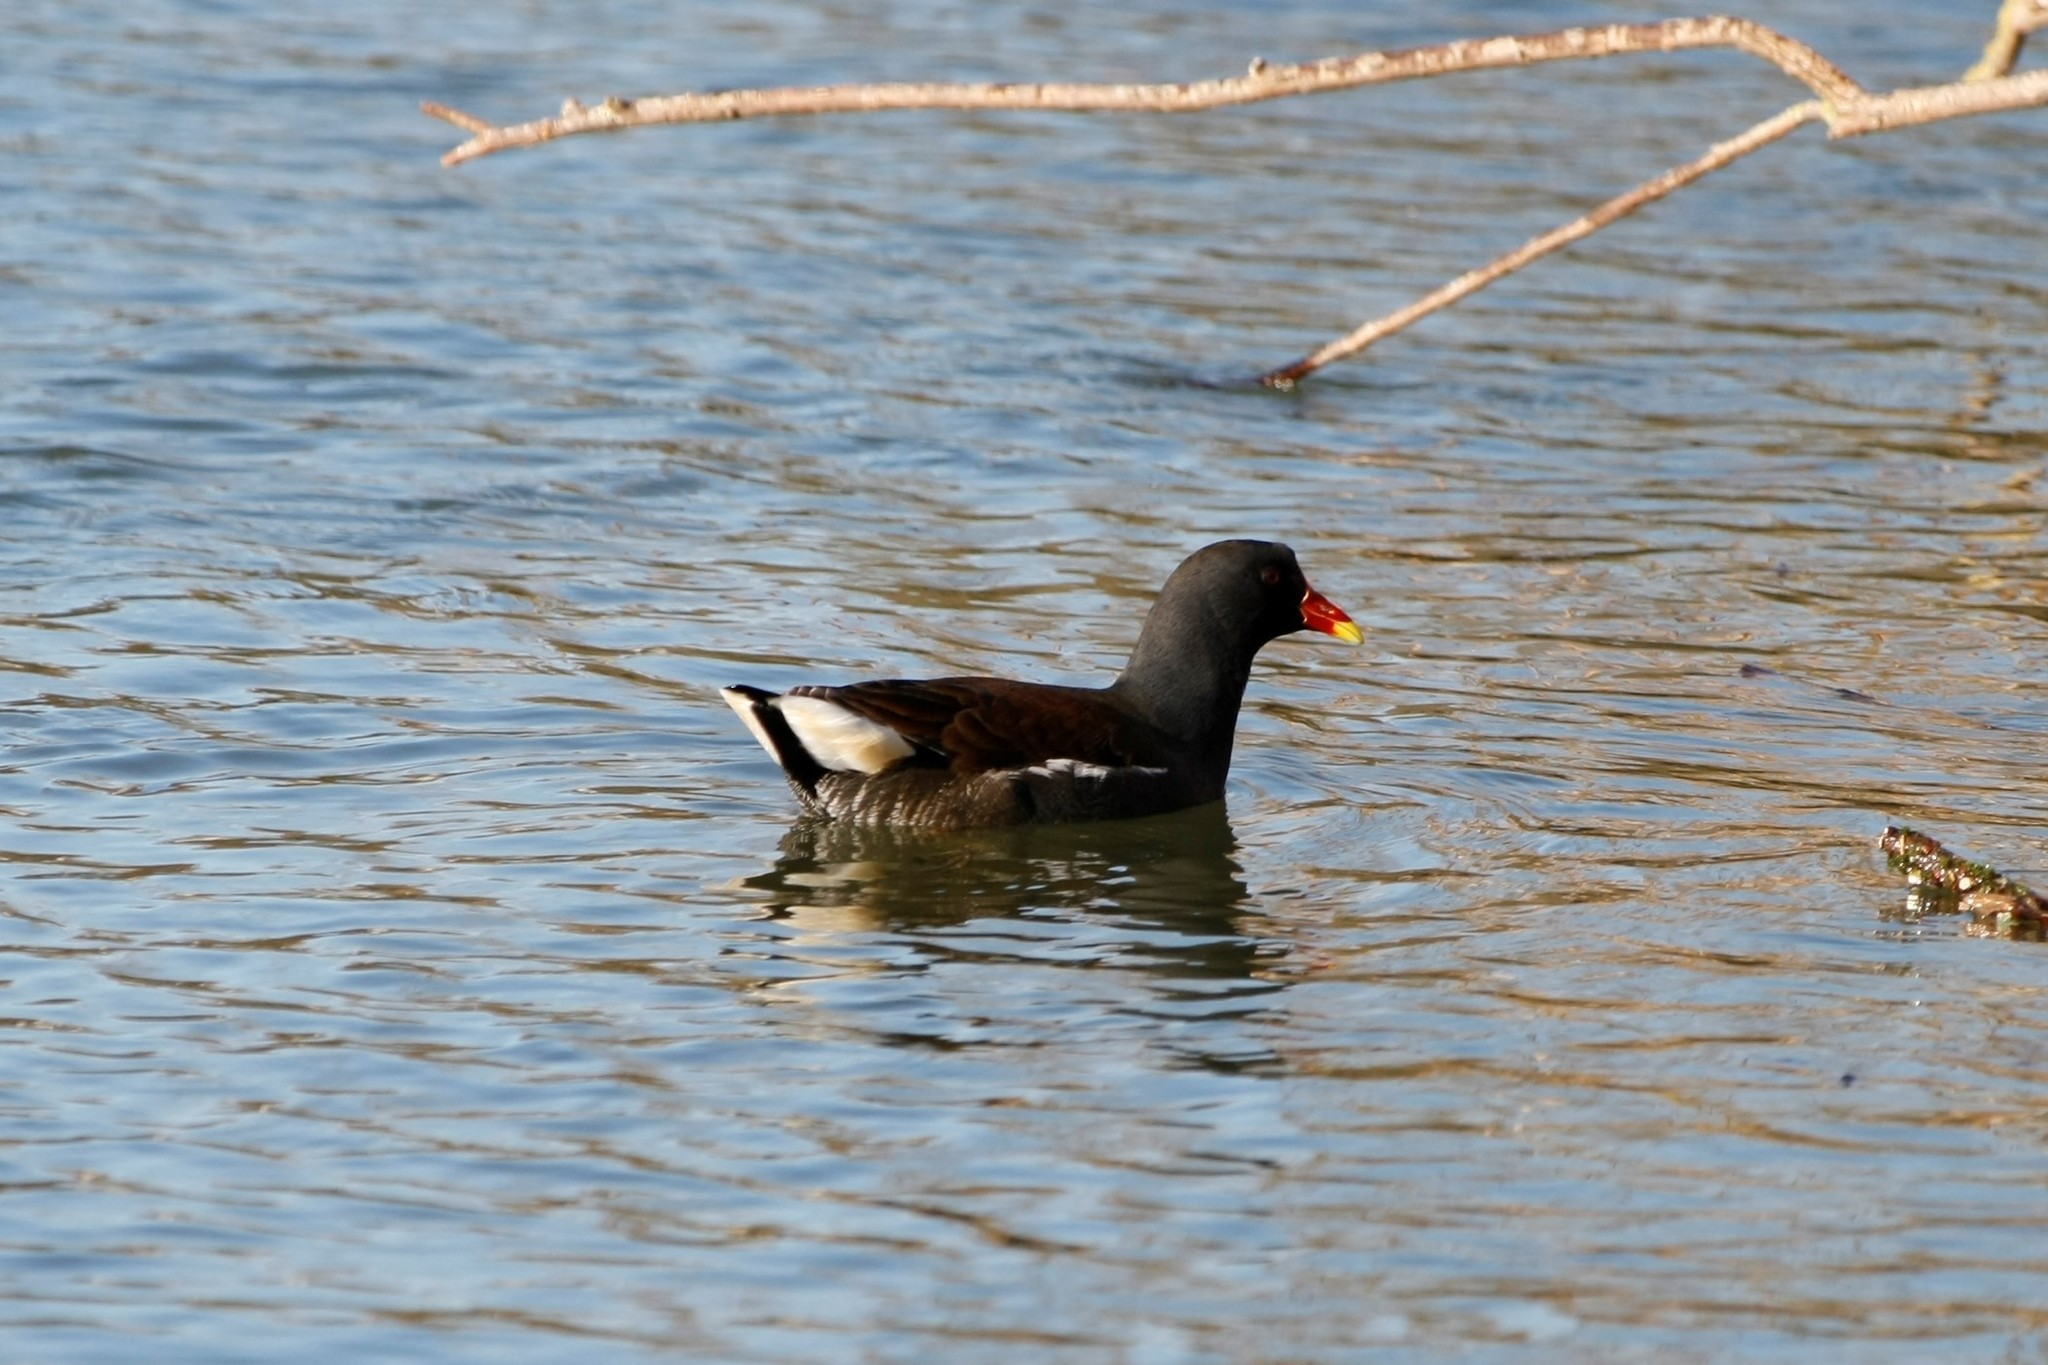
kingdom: Animalia
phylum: Chordata
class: Aves
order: Gruiformes
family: Rallidae
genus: Gallinula
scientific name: Gallinula chloropus
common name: Common moorhen
